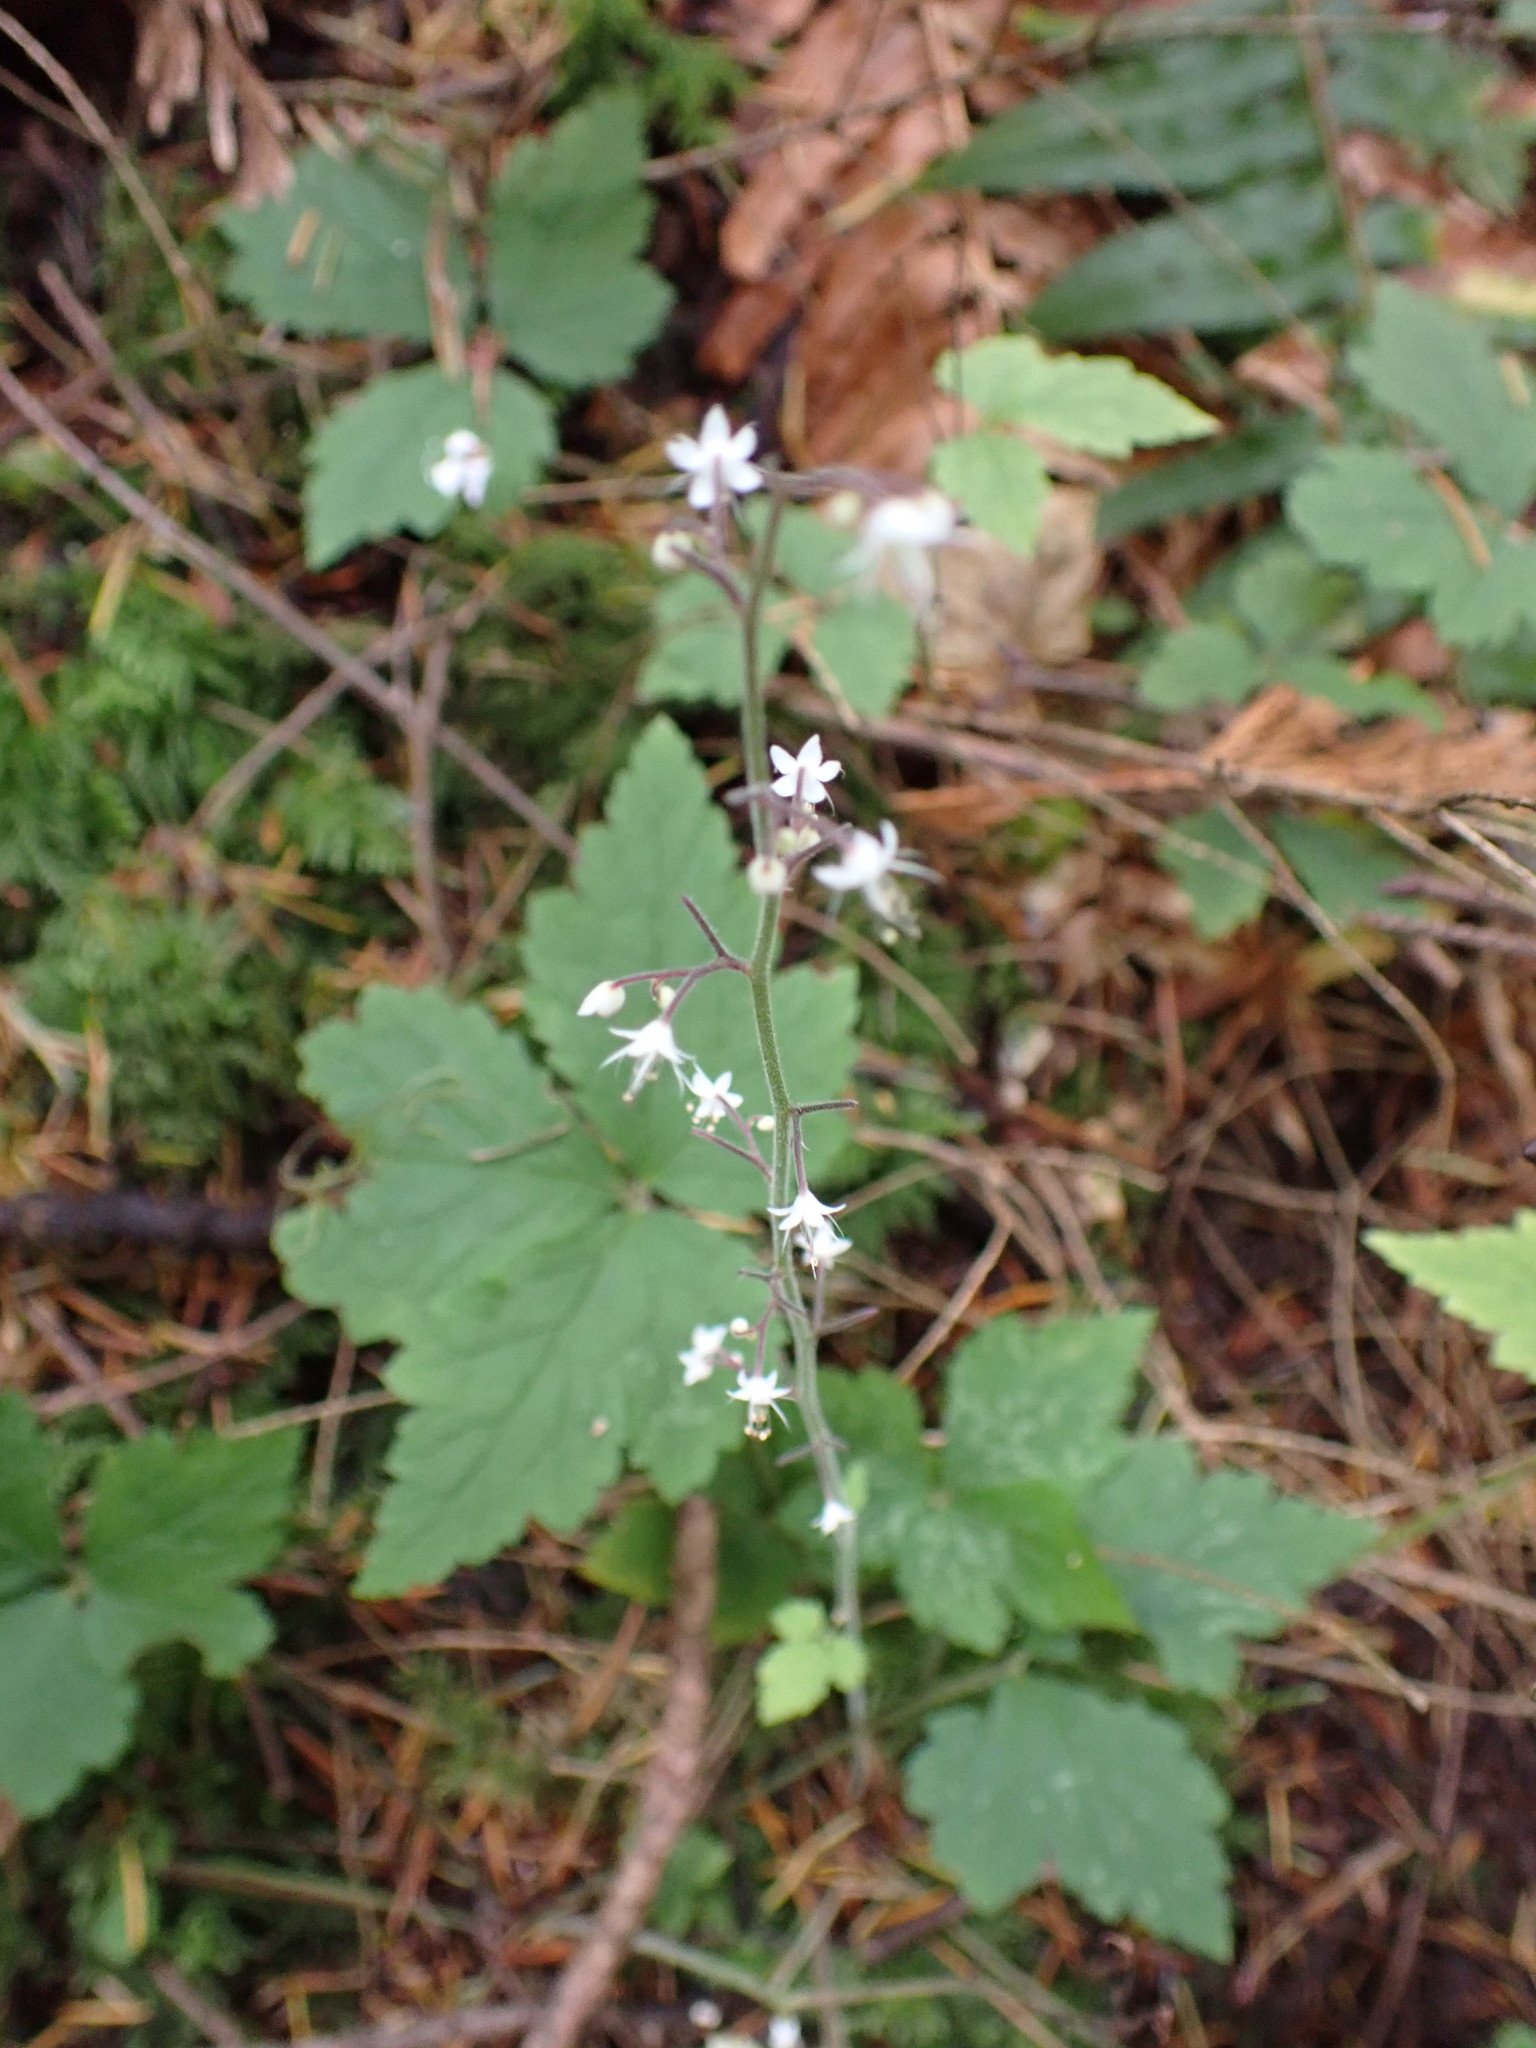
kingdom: Plantae
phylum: Tracheophyta
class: Magnoliopsida
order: Saxifragales
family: Saxifragaceae
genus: Tiarella
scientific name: Tiarella trifoliata
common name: Sugar-scoop
